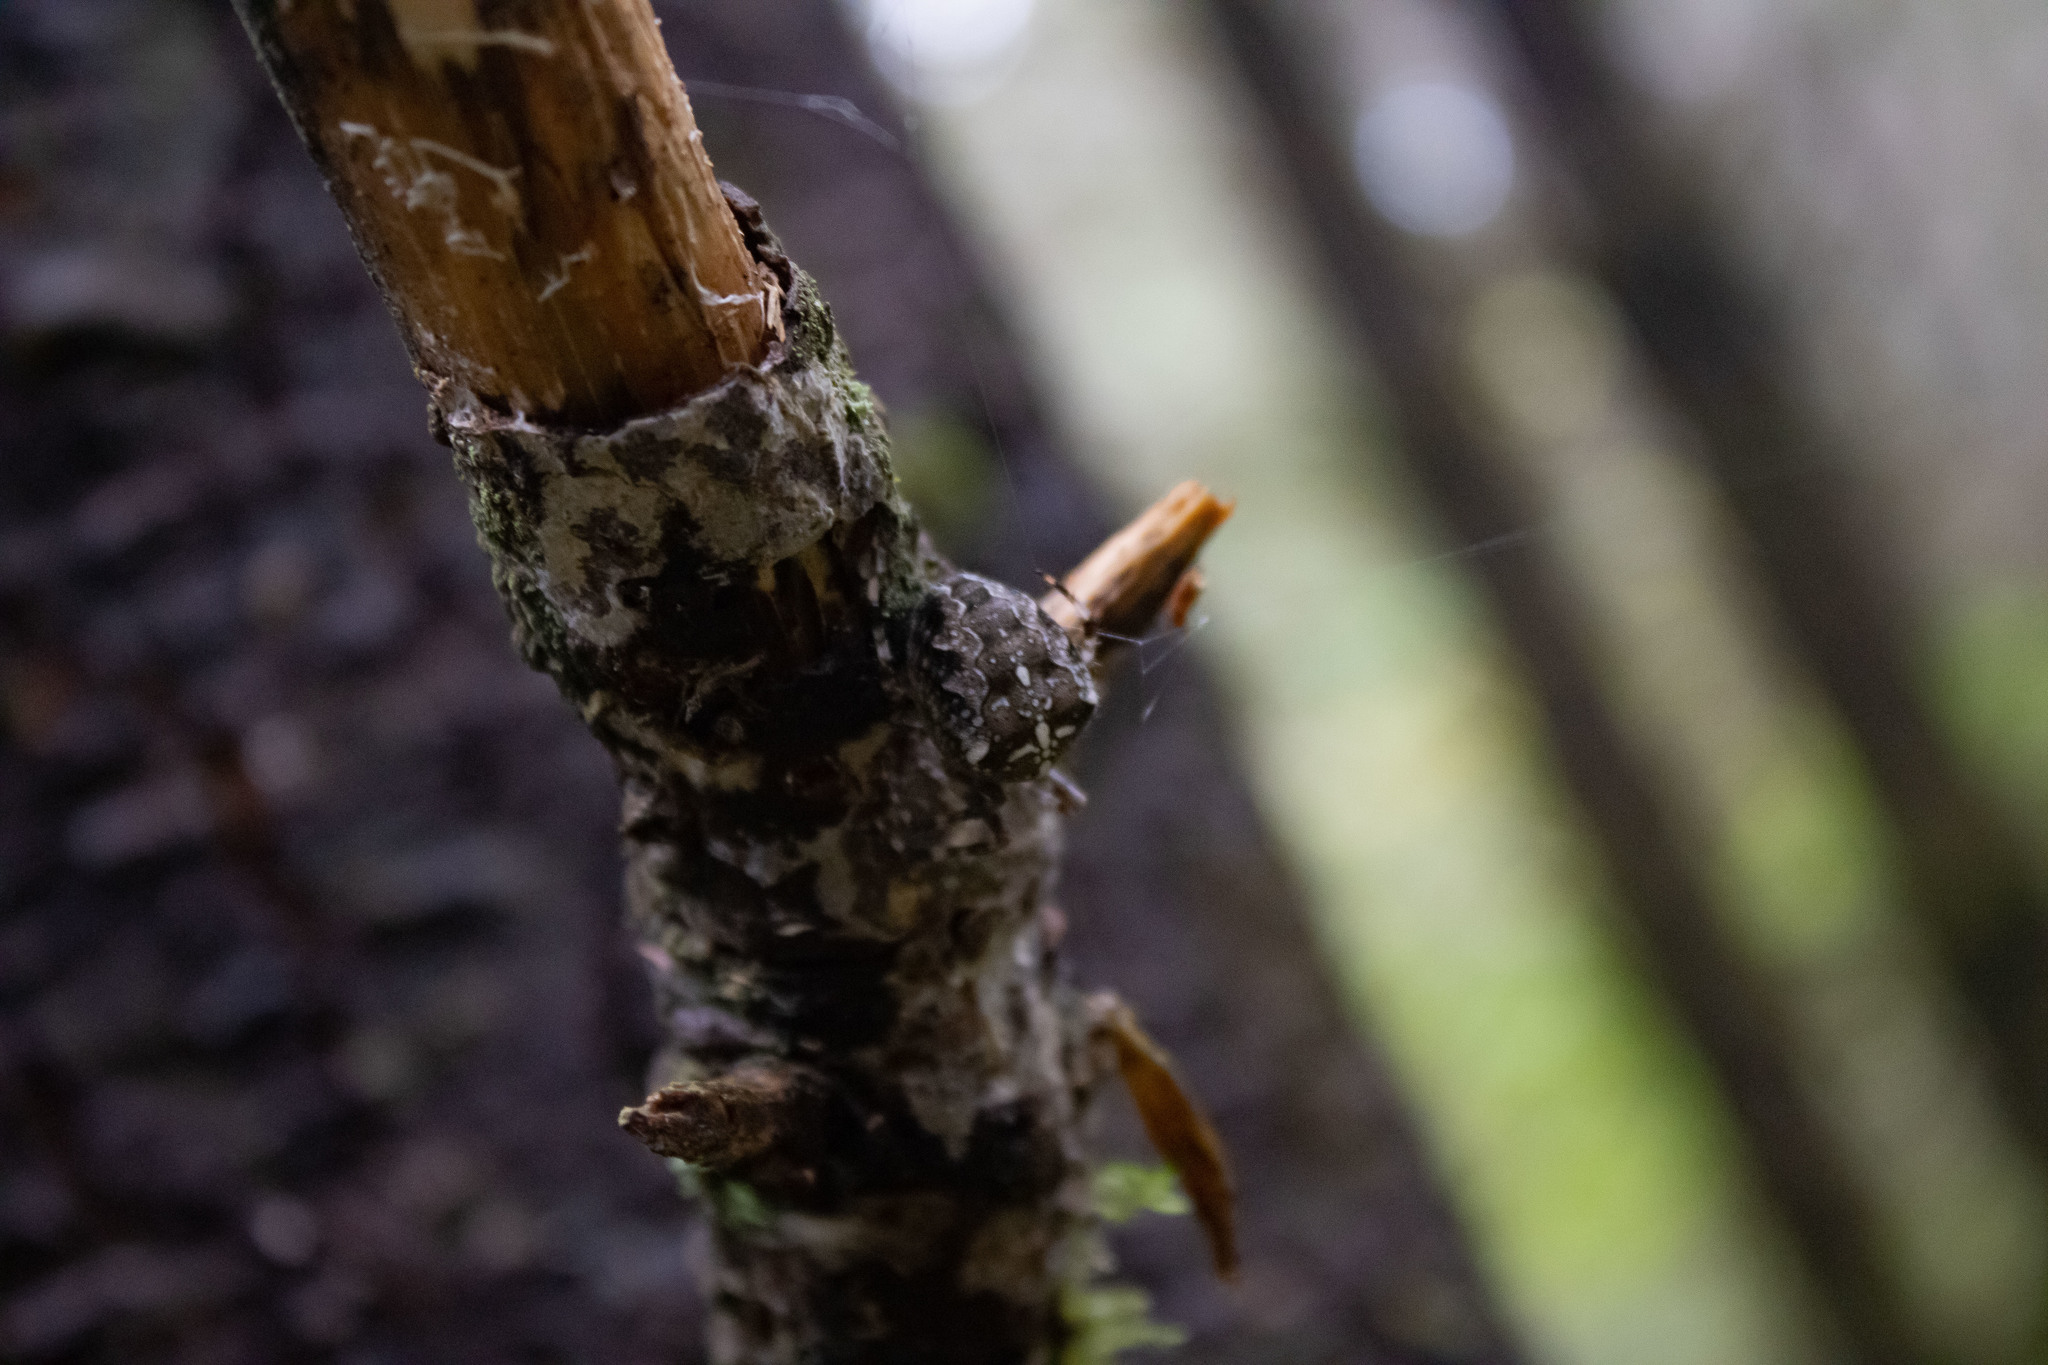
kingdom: Animalia
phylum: Arthropoda
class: Arachnida
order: Araneae
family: Araneidae
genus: Araneus
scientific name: Araneus diadematus
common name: Cross orbweaver
